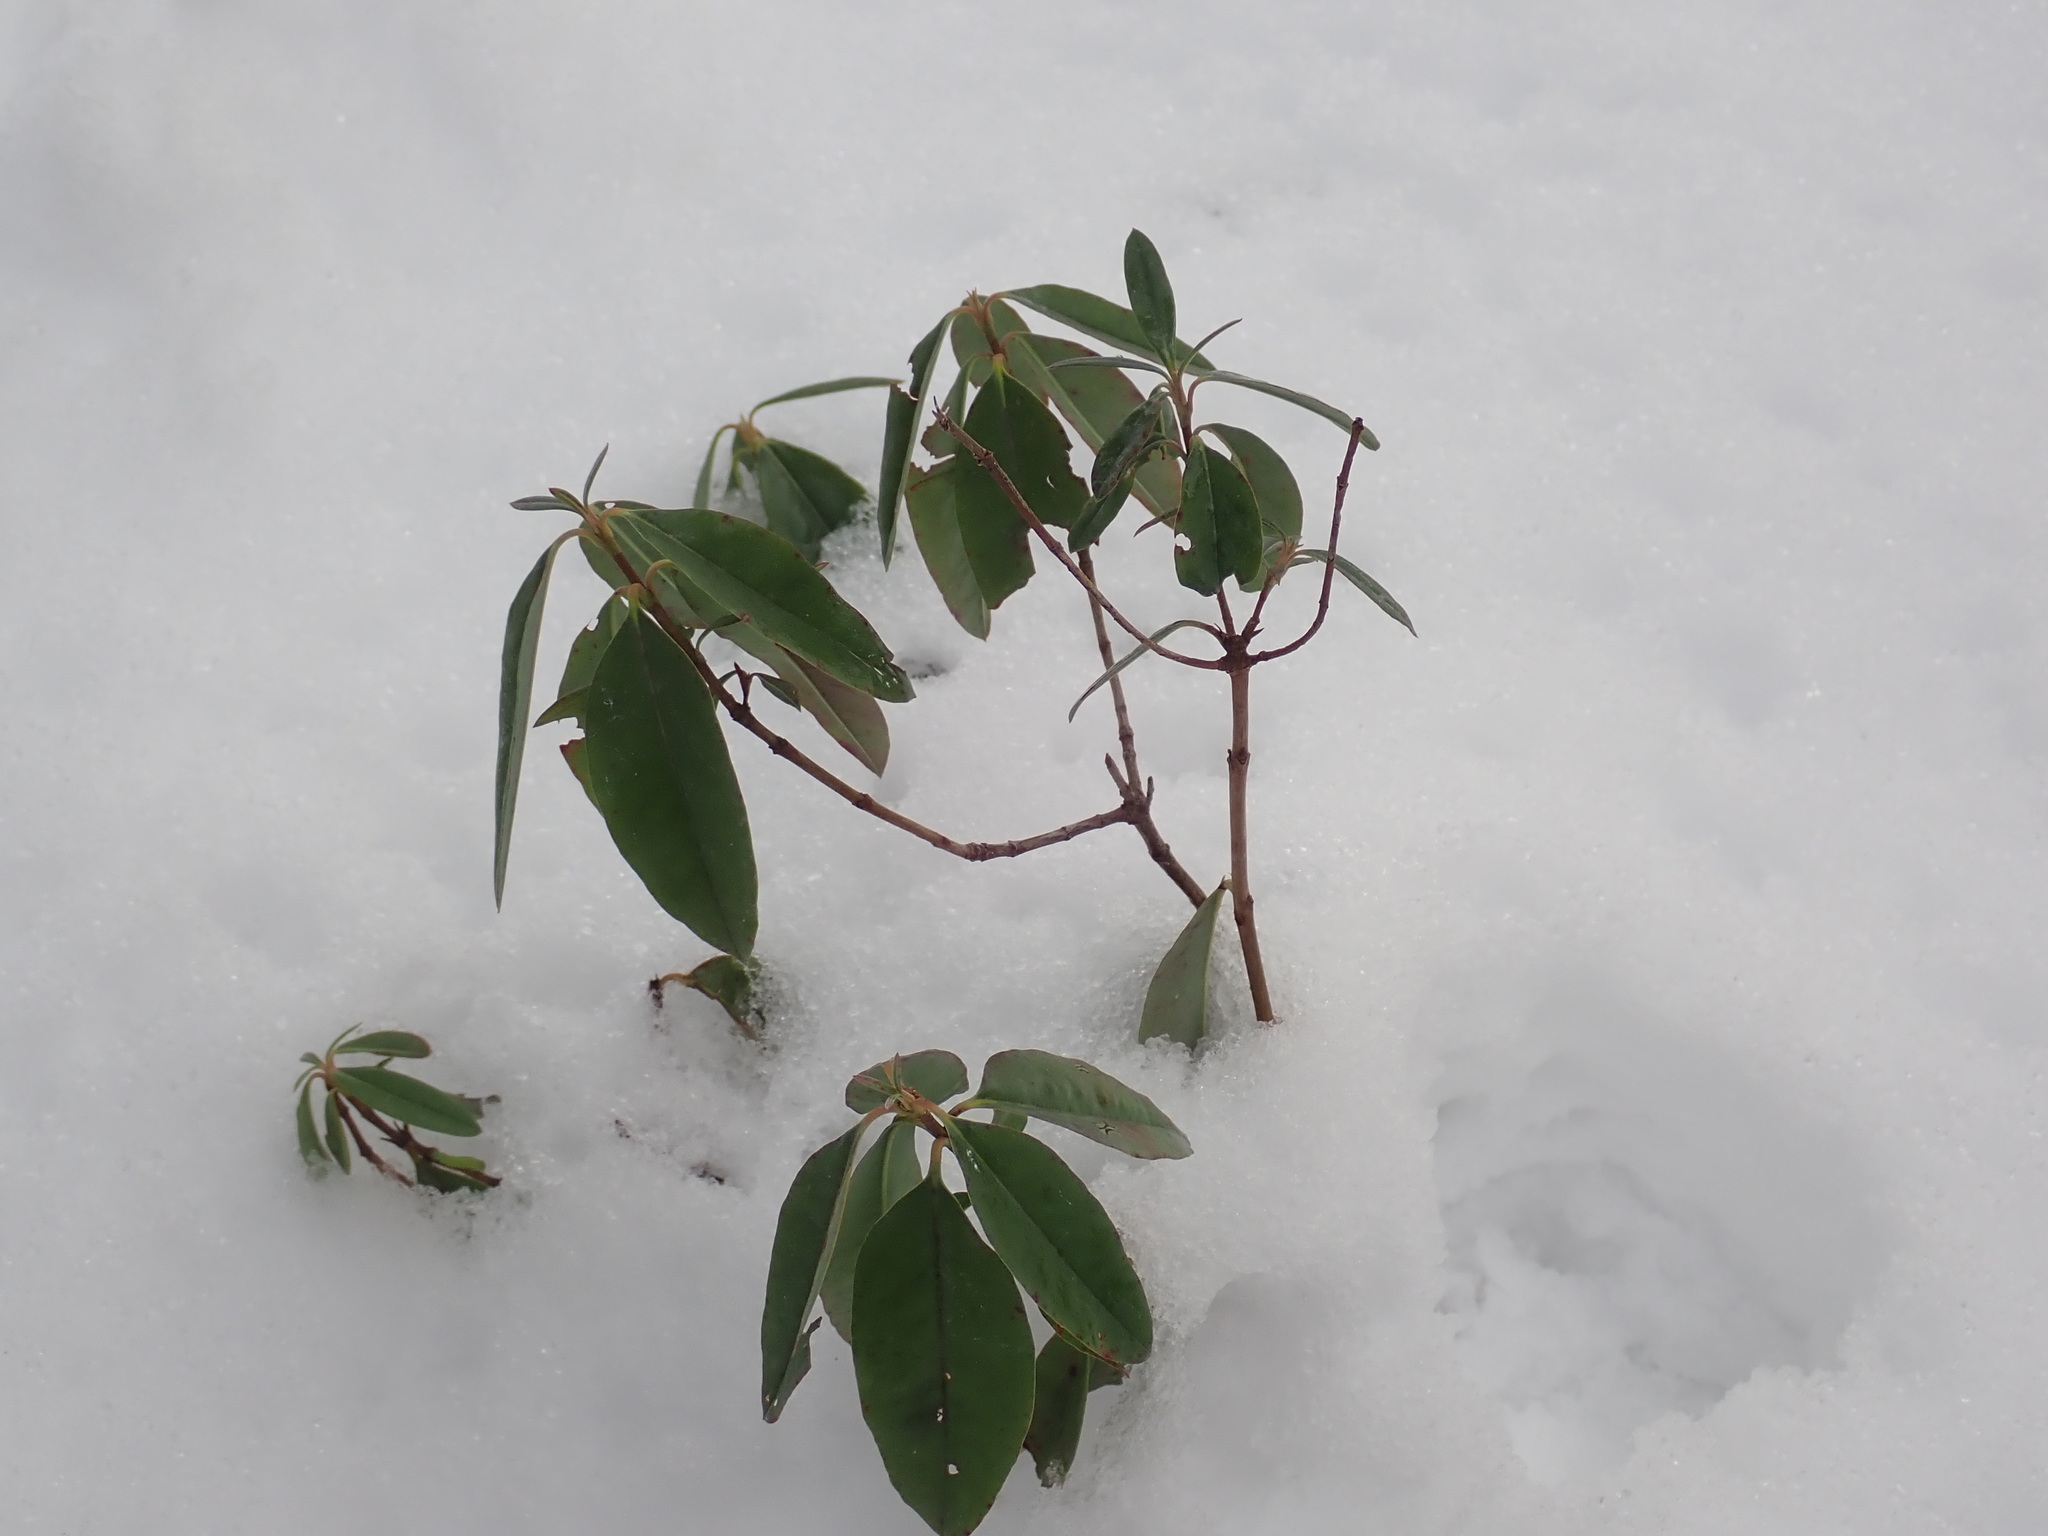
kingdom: Plantae
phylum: Tracheophyta
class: Magnoliopsida
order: Ericales
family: Ericaceae
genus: Kalmia
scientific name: Kalmia angustifolia
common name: Sheep-laurel
